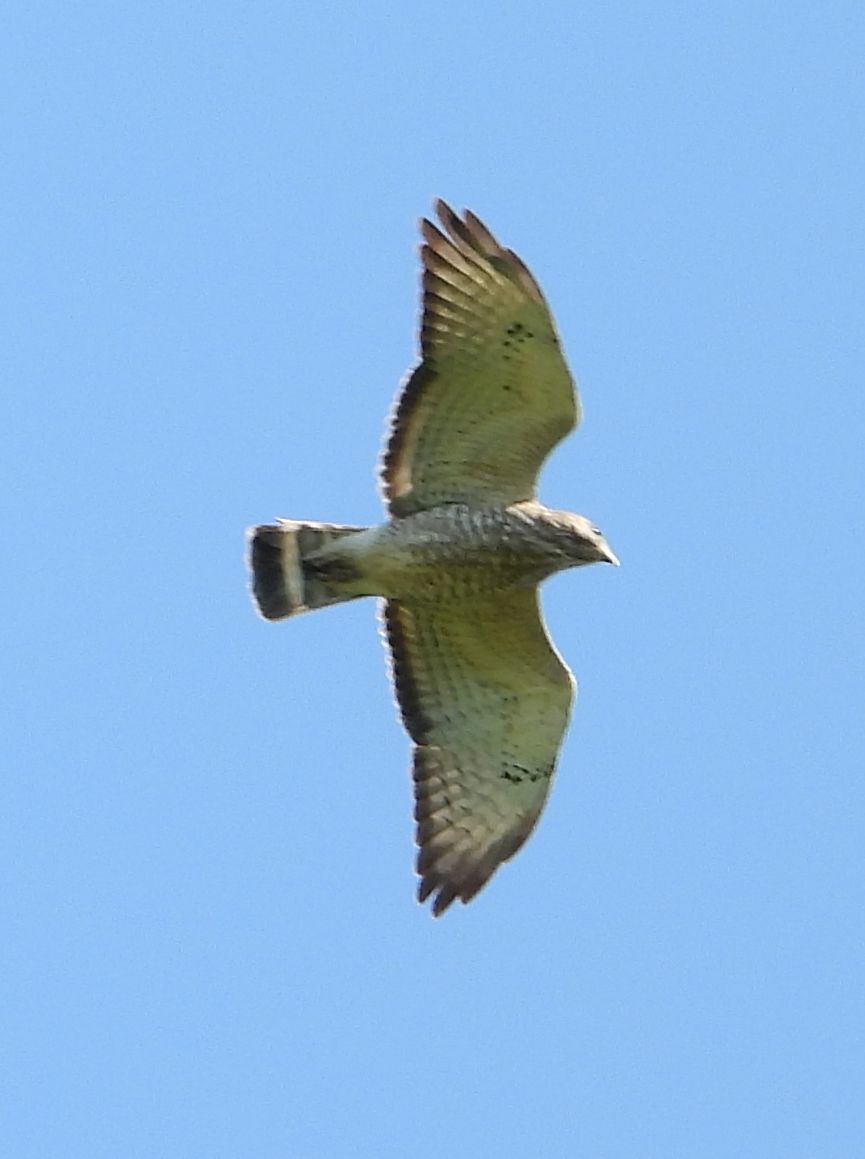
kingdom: Animalia
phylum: Chordata
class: Aves
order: Accipitriformes
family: Accipitridae
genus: Buteo
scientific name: Buteo platypterus
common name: Broad-winged hawk
